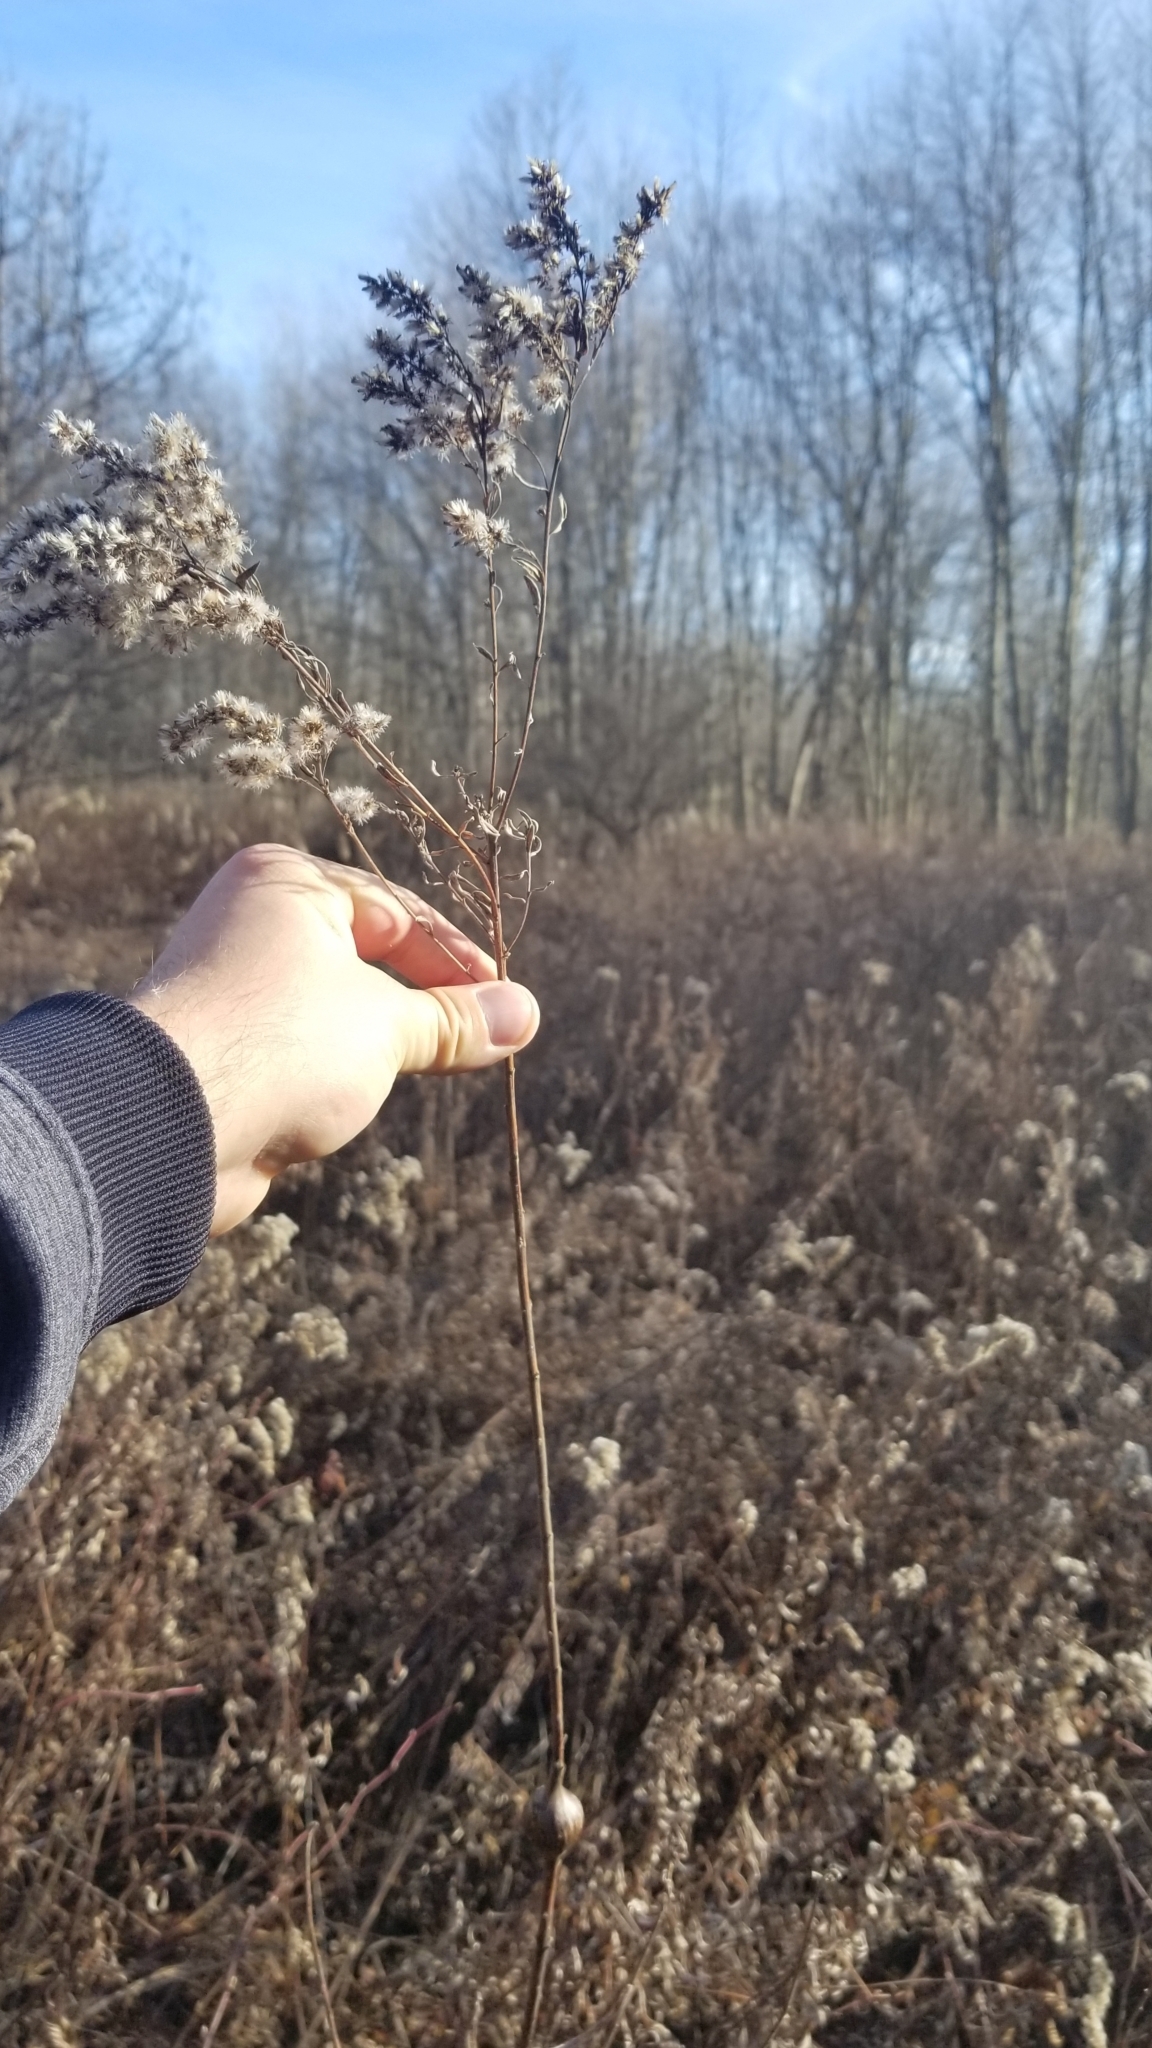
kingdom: Animalia
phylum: Arthropoda
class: Insecta
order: Diptera
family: Tephritidae
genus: Eurosta
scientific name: Eurosta solidaginis
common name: Goldenrod gall fly
